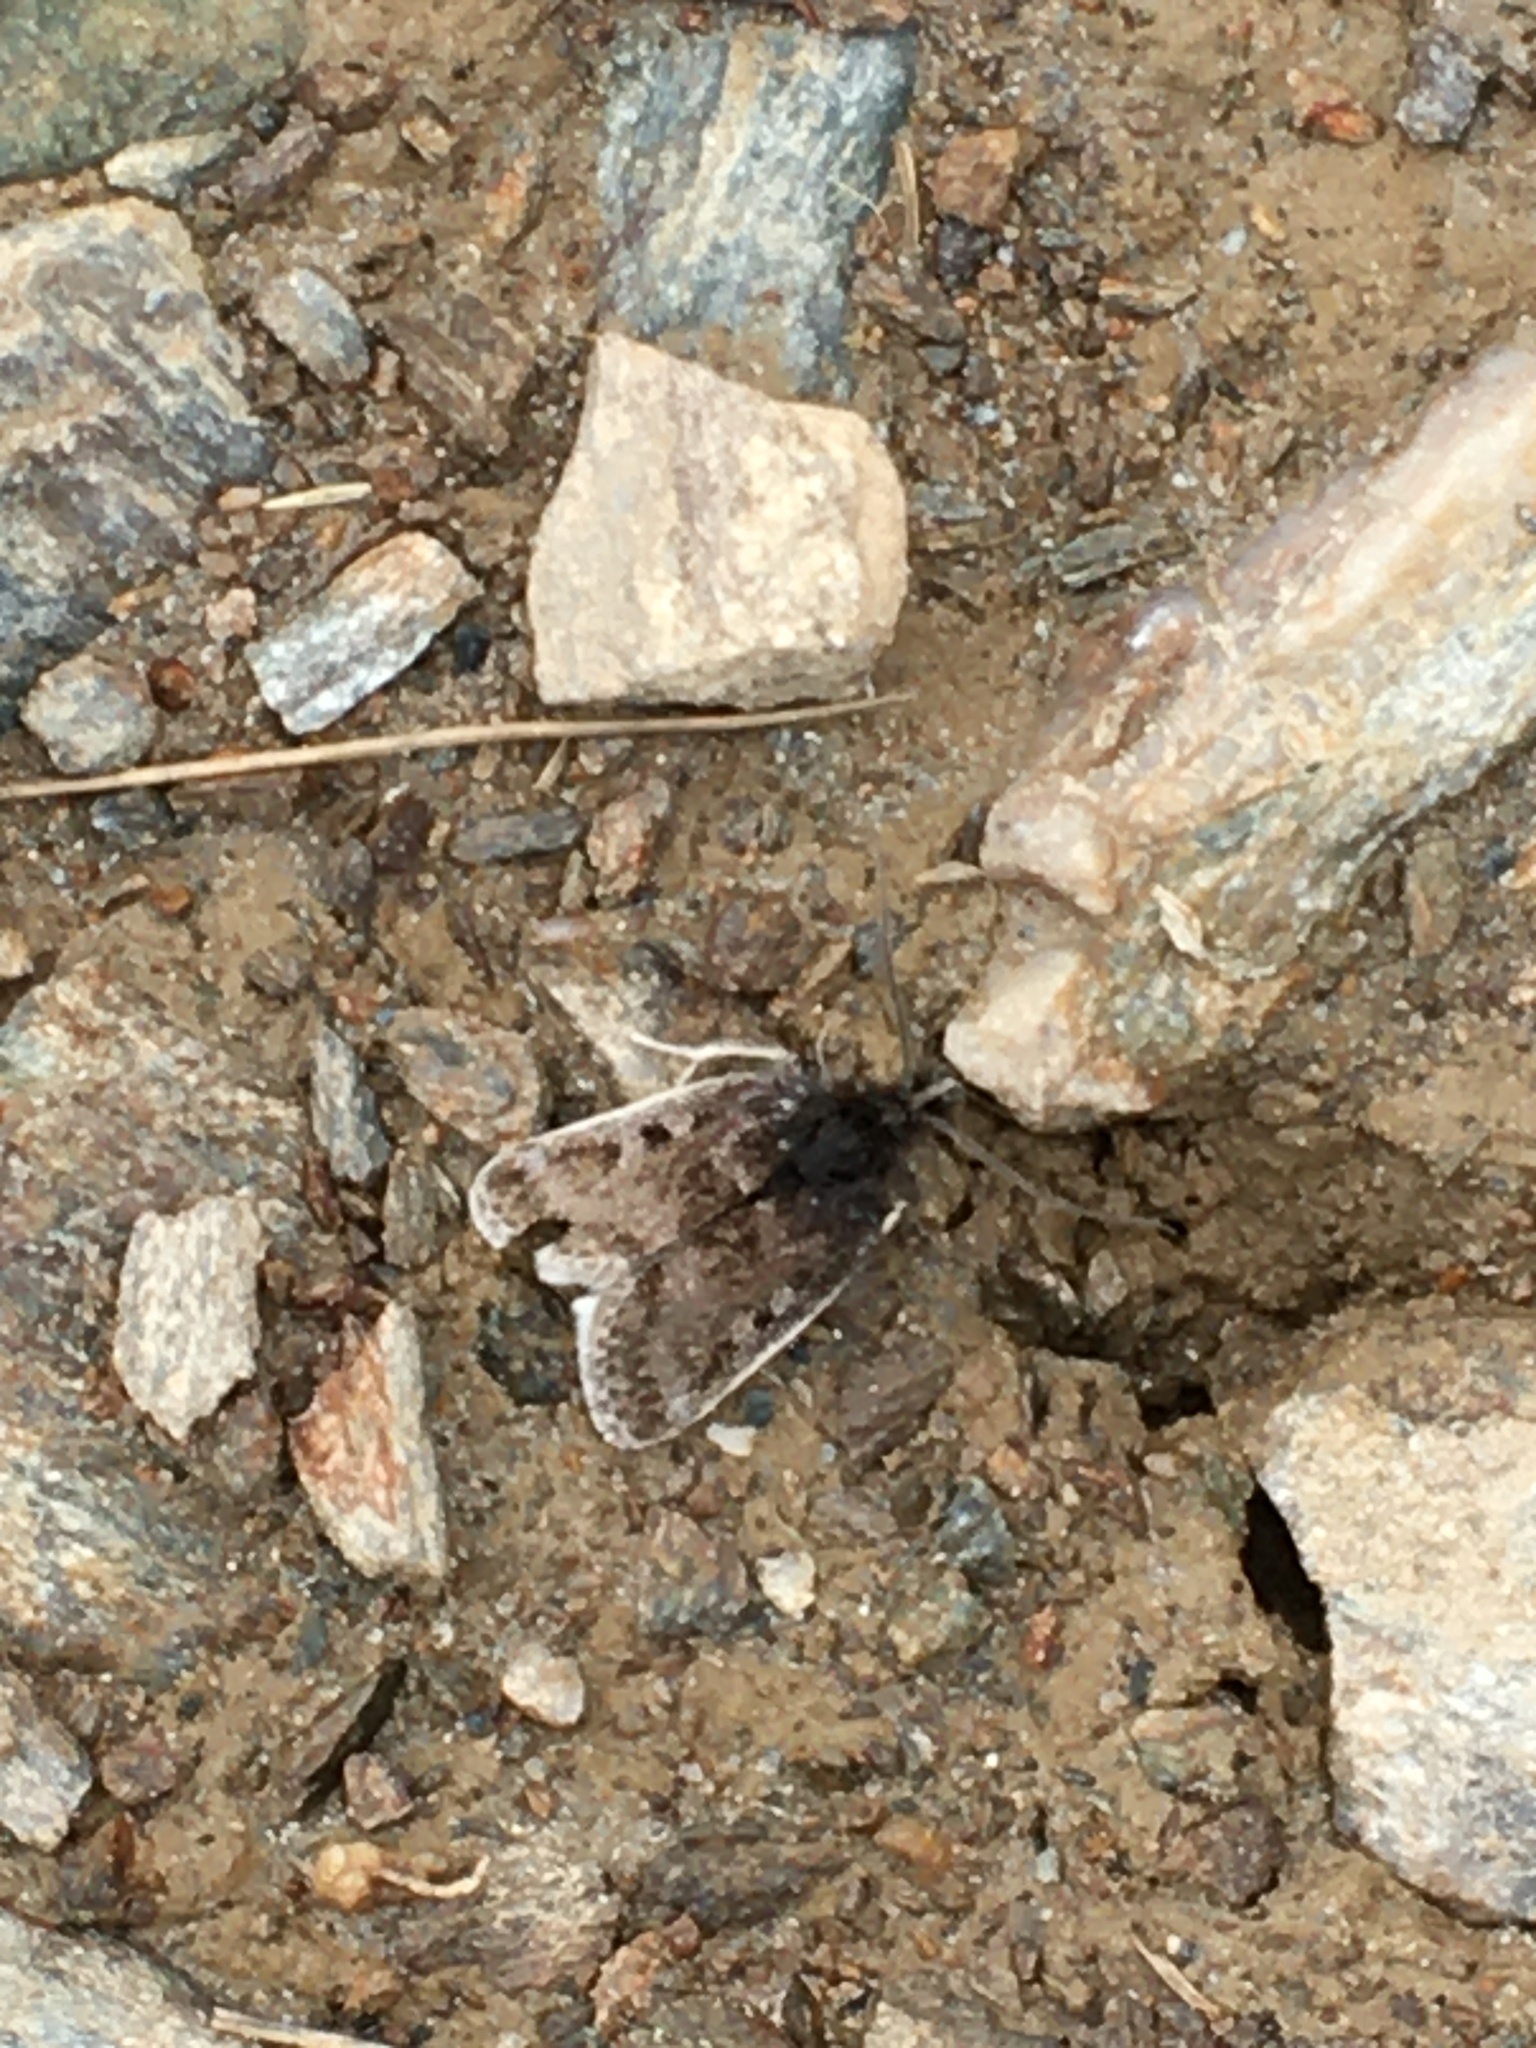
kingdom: Animalia
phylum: Arthropoda
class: Insecta
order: Lepidoptera
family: Crambidae
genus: Metaxmeste
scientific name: Metaxmeste phrygialis
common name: Black mountain pearl
